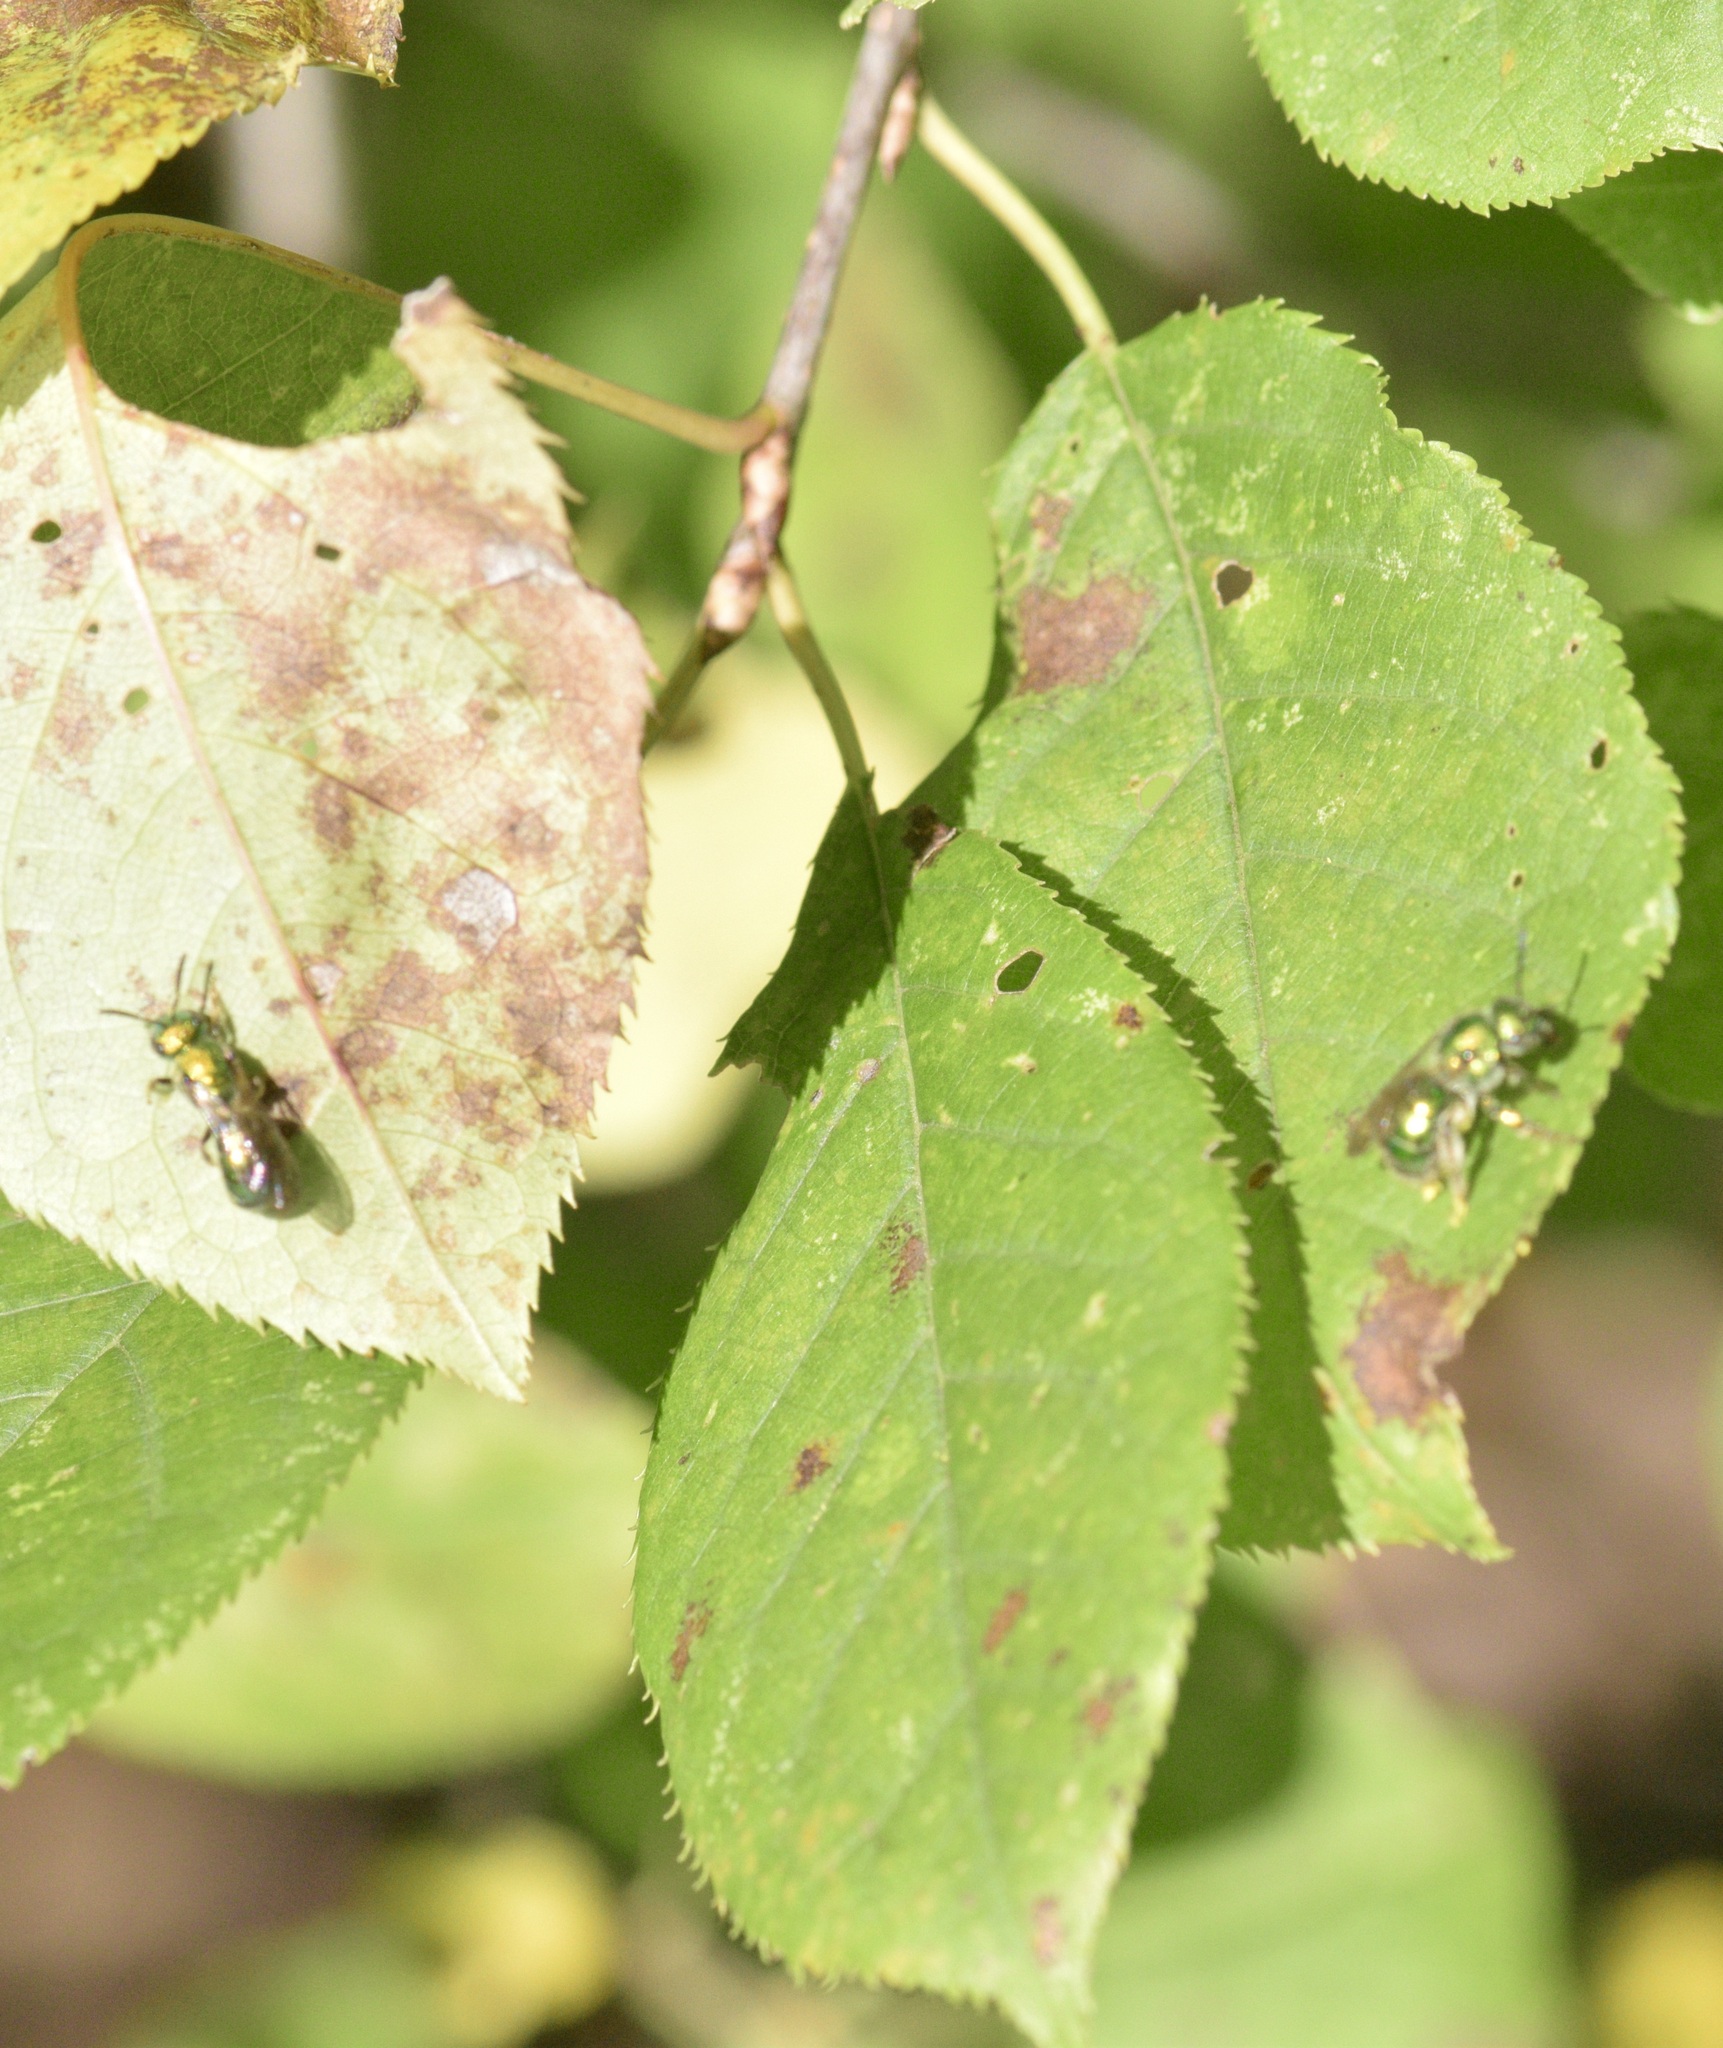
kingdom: Animalia
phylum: Arthropoda
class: Insecta
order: Hymenoptera
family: Halictidae
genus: Augochloropsis
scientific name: Augochloropsis viridula
